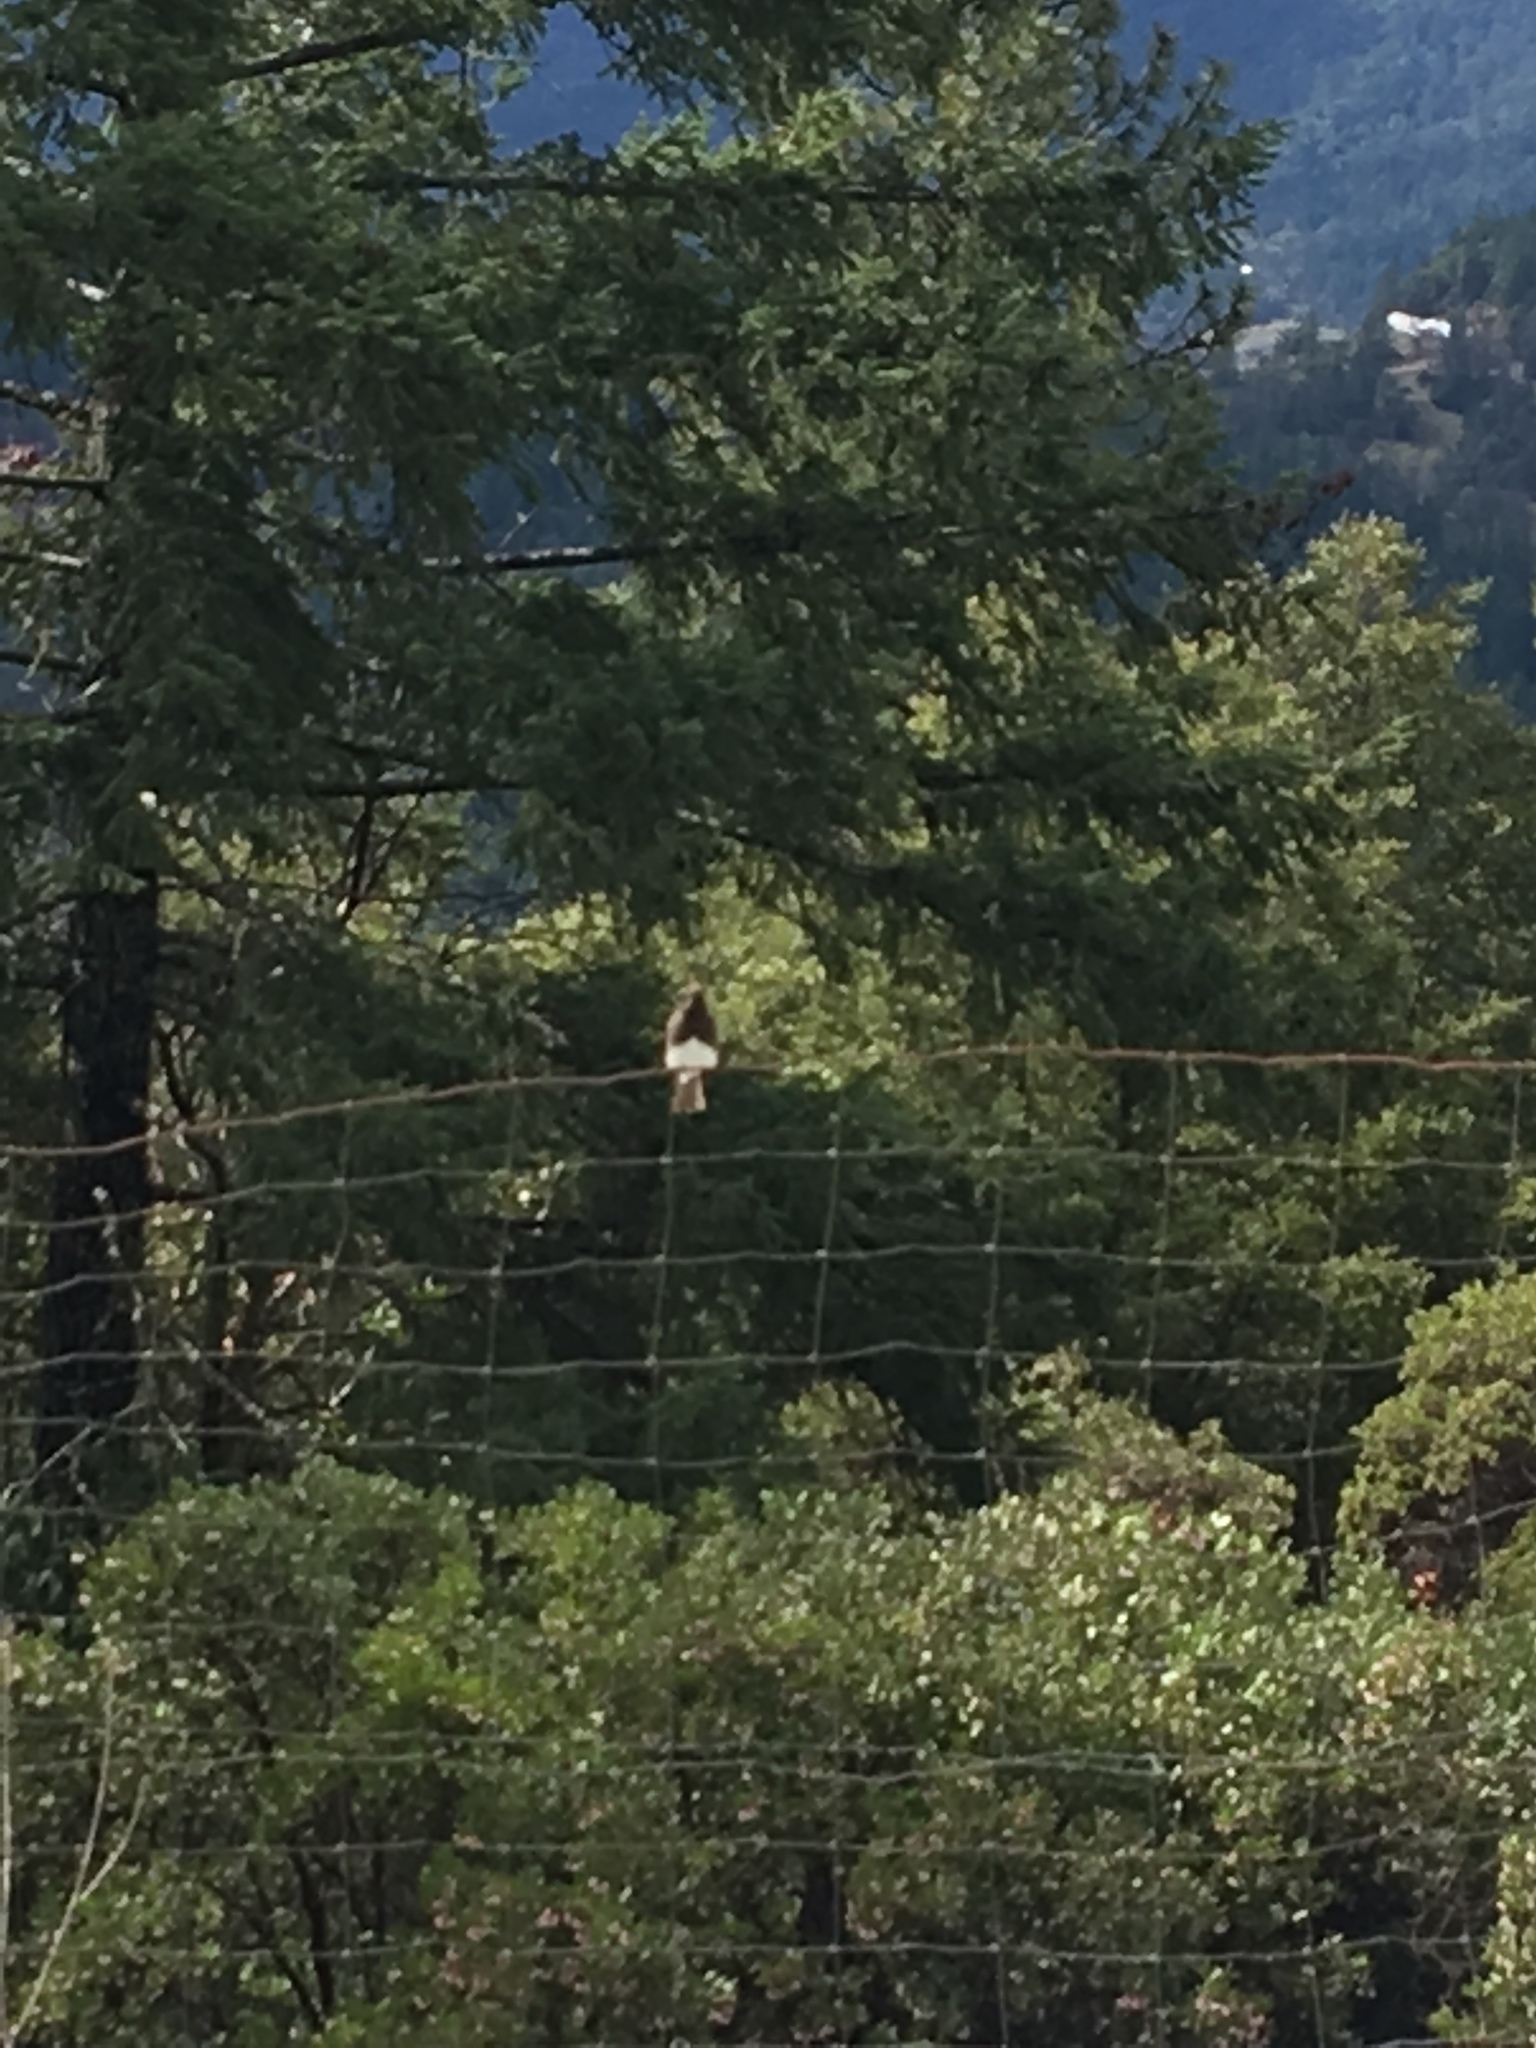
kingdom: Animalia
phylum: Chordata
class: Aves
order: Passeriformes
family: Tyrannidae
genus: Sayornis
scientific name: Sayornis nigricans
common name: Black phoebe
